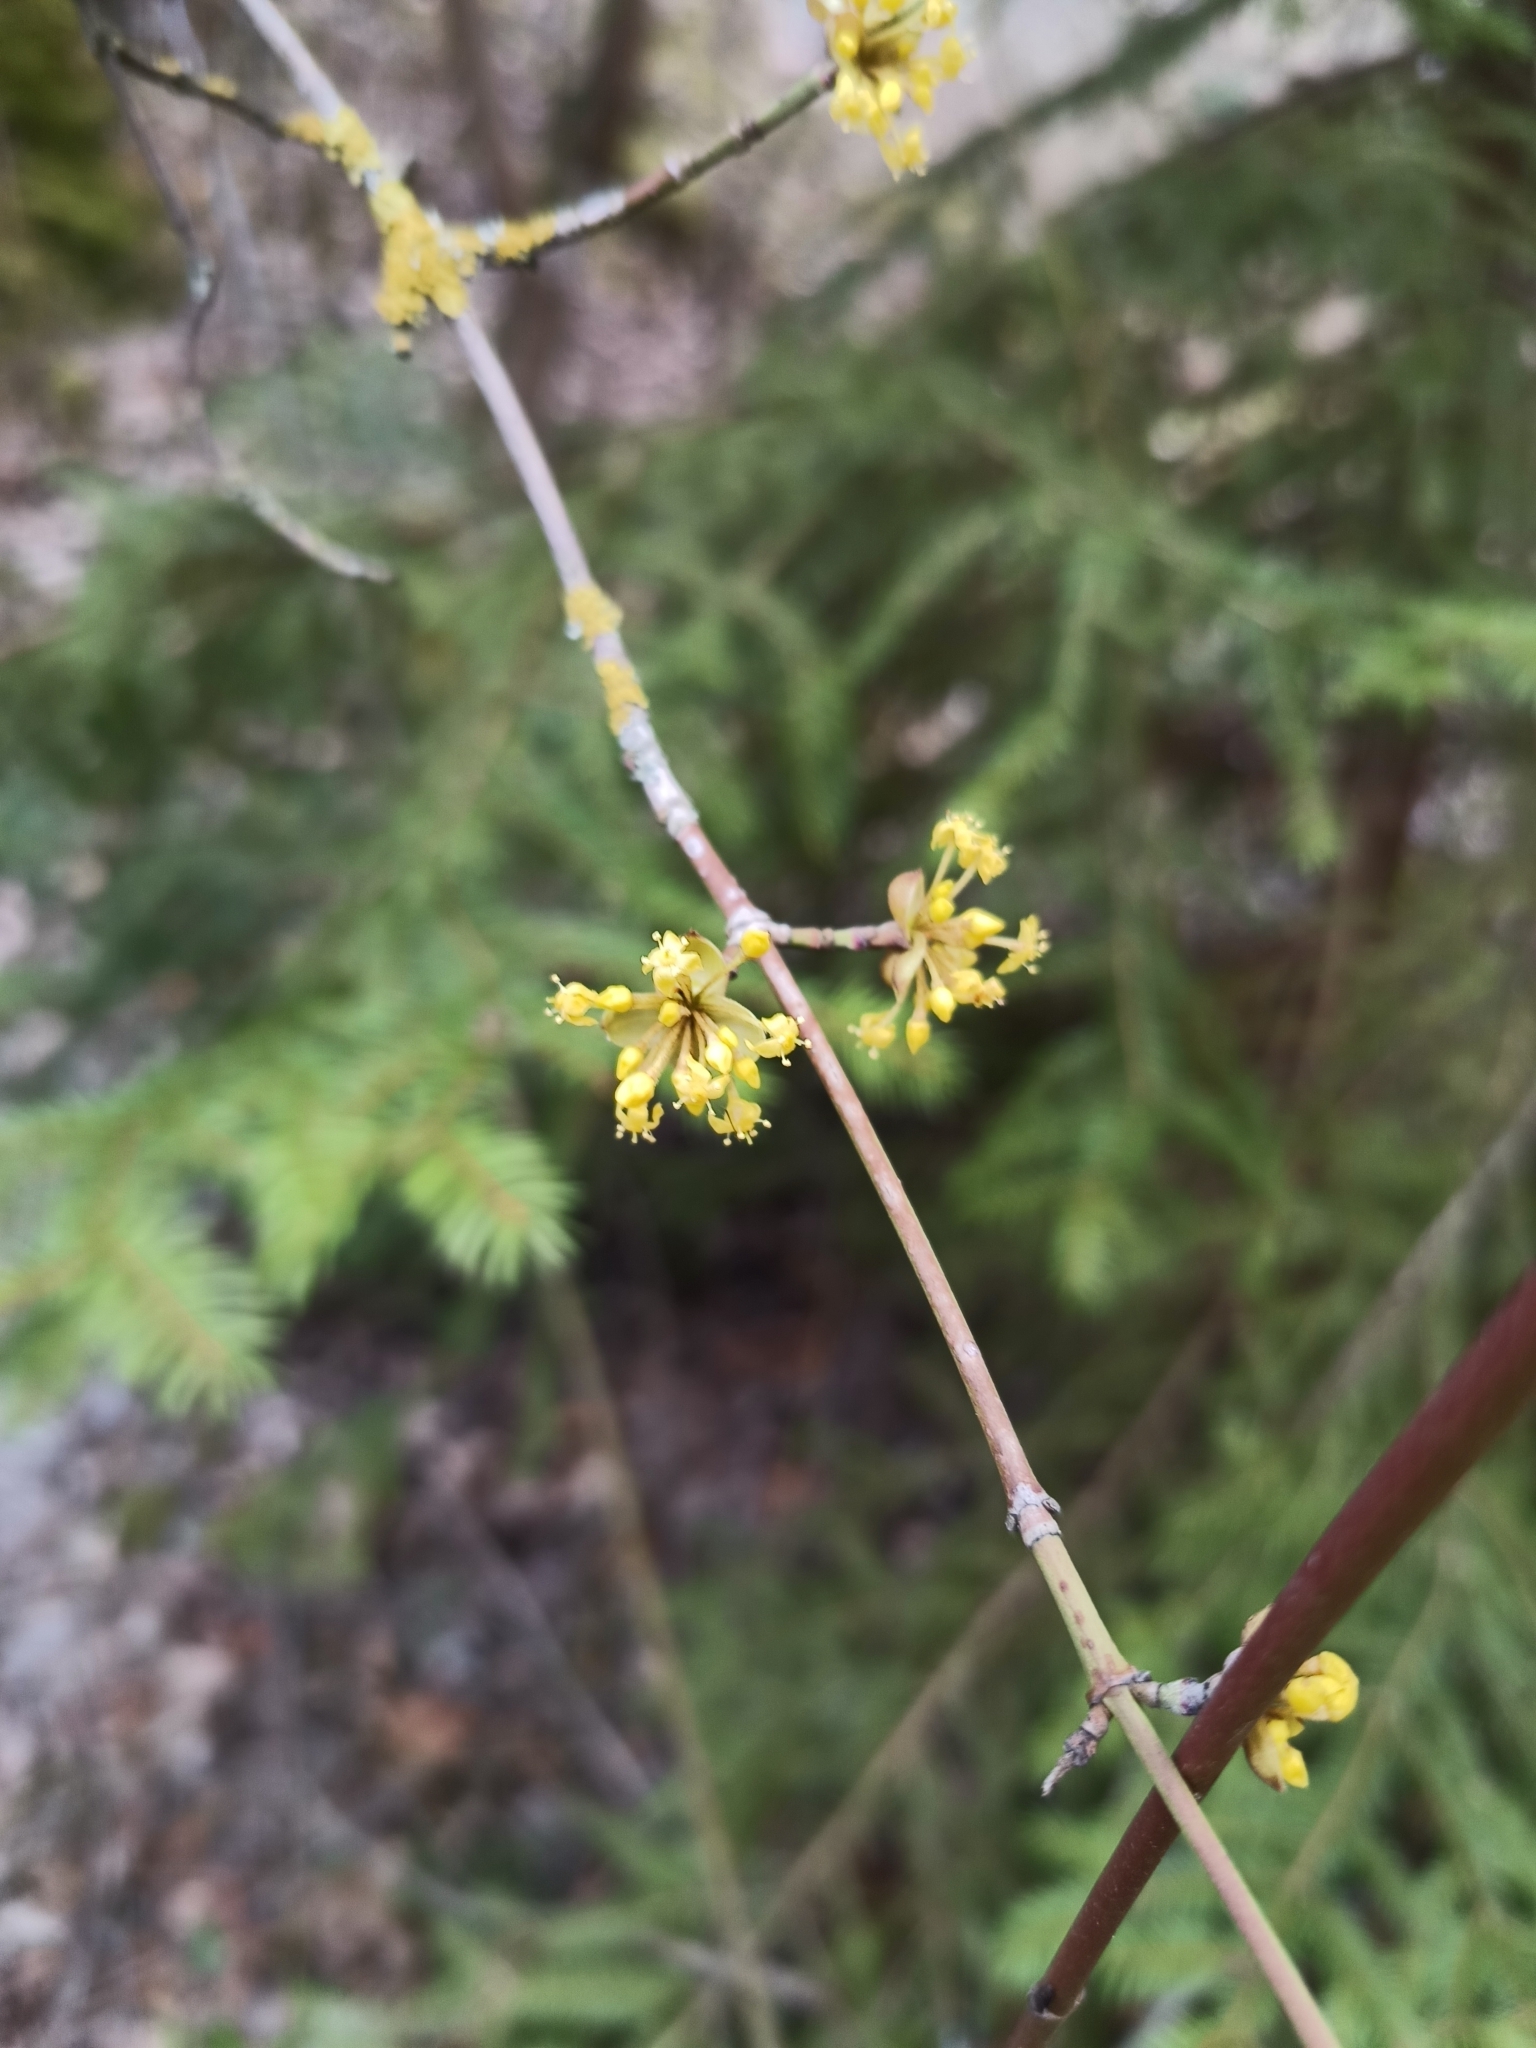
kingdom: Plantae
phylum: Tracheophyta
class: Magnoliopsida
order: Cornales
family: Cornaceae
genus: Cornus
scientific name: Cornus mas
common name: Cornelian-cherry
